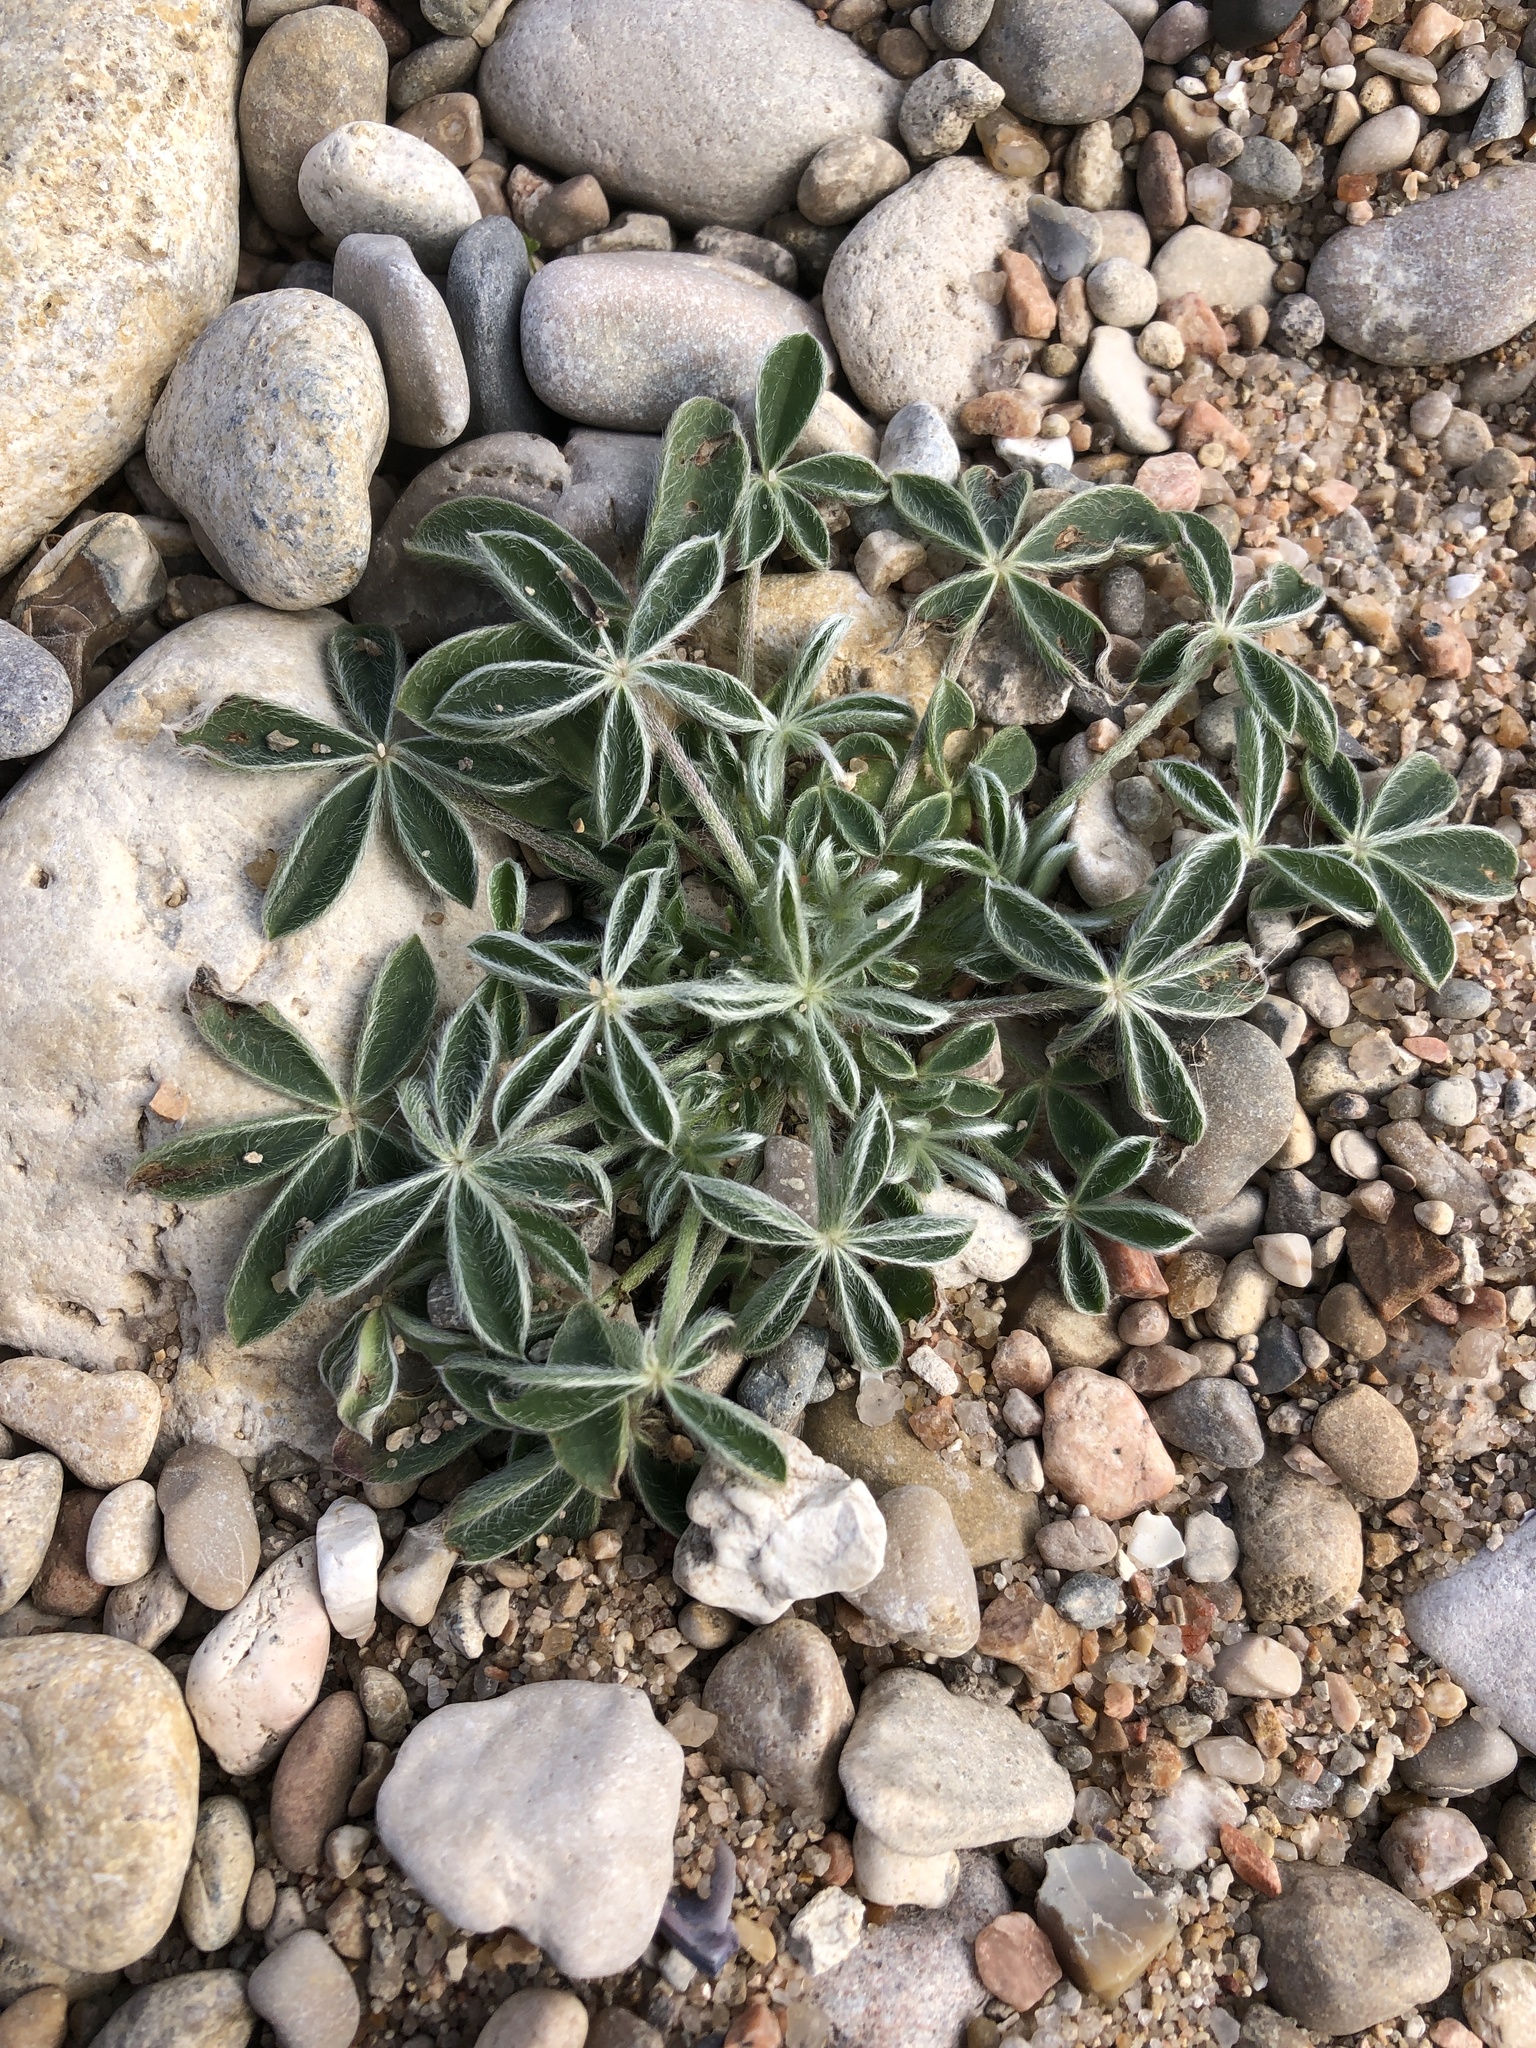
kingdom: Plantae
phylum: Tracheophyta
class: Magnoliopsida
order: Fabales
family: Fabaceae
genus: Lupinus
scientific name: Lupinus texensis
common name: Texas bluebonnet
